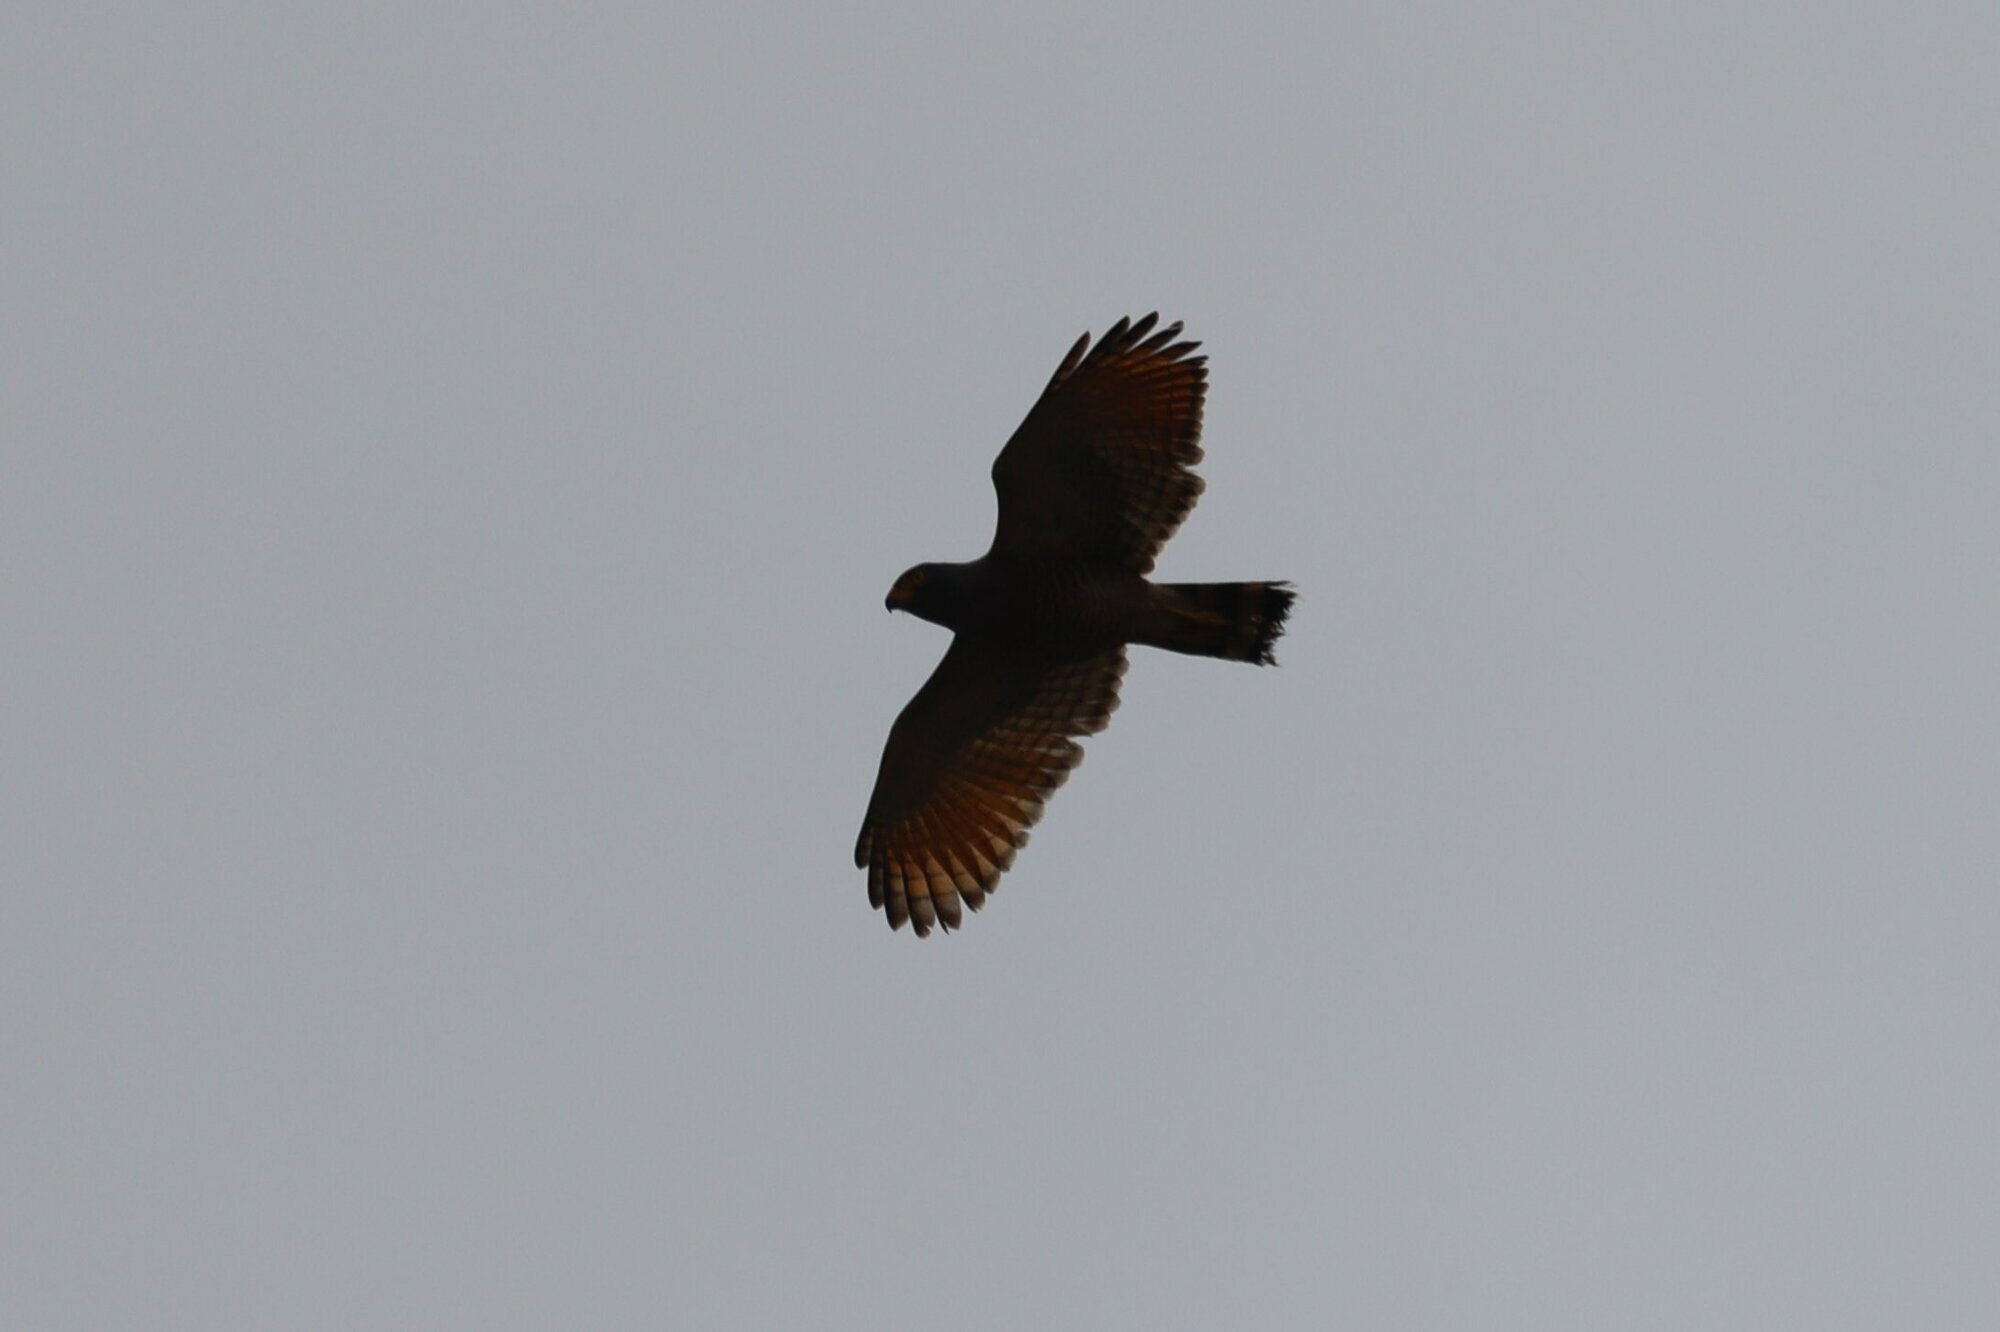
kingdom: Animalia
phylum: Chordata
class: Aves
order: Accipitriformes
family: Accipitridae
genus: Rupornis
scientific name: Rupornis magnirostris
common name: Roadside hawk
